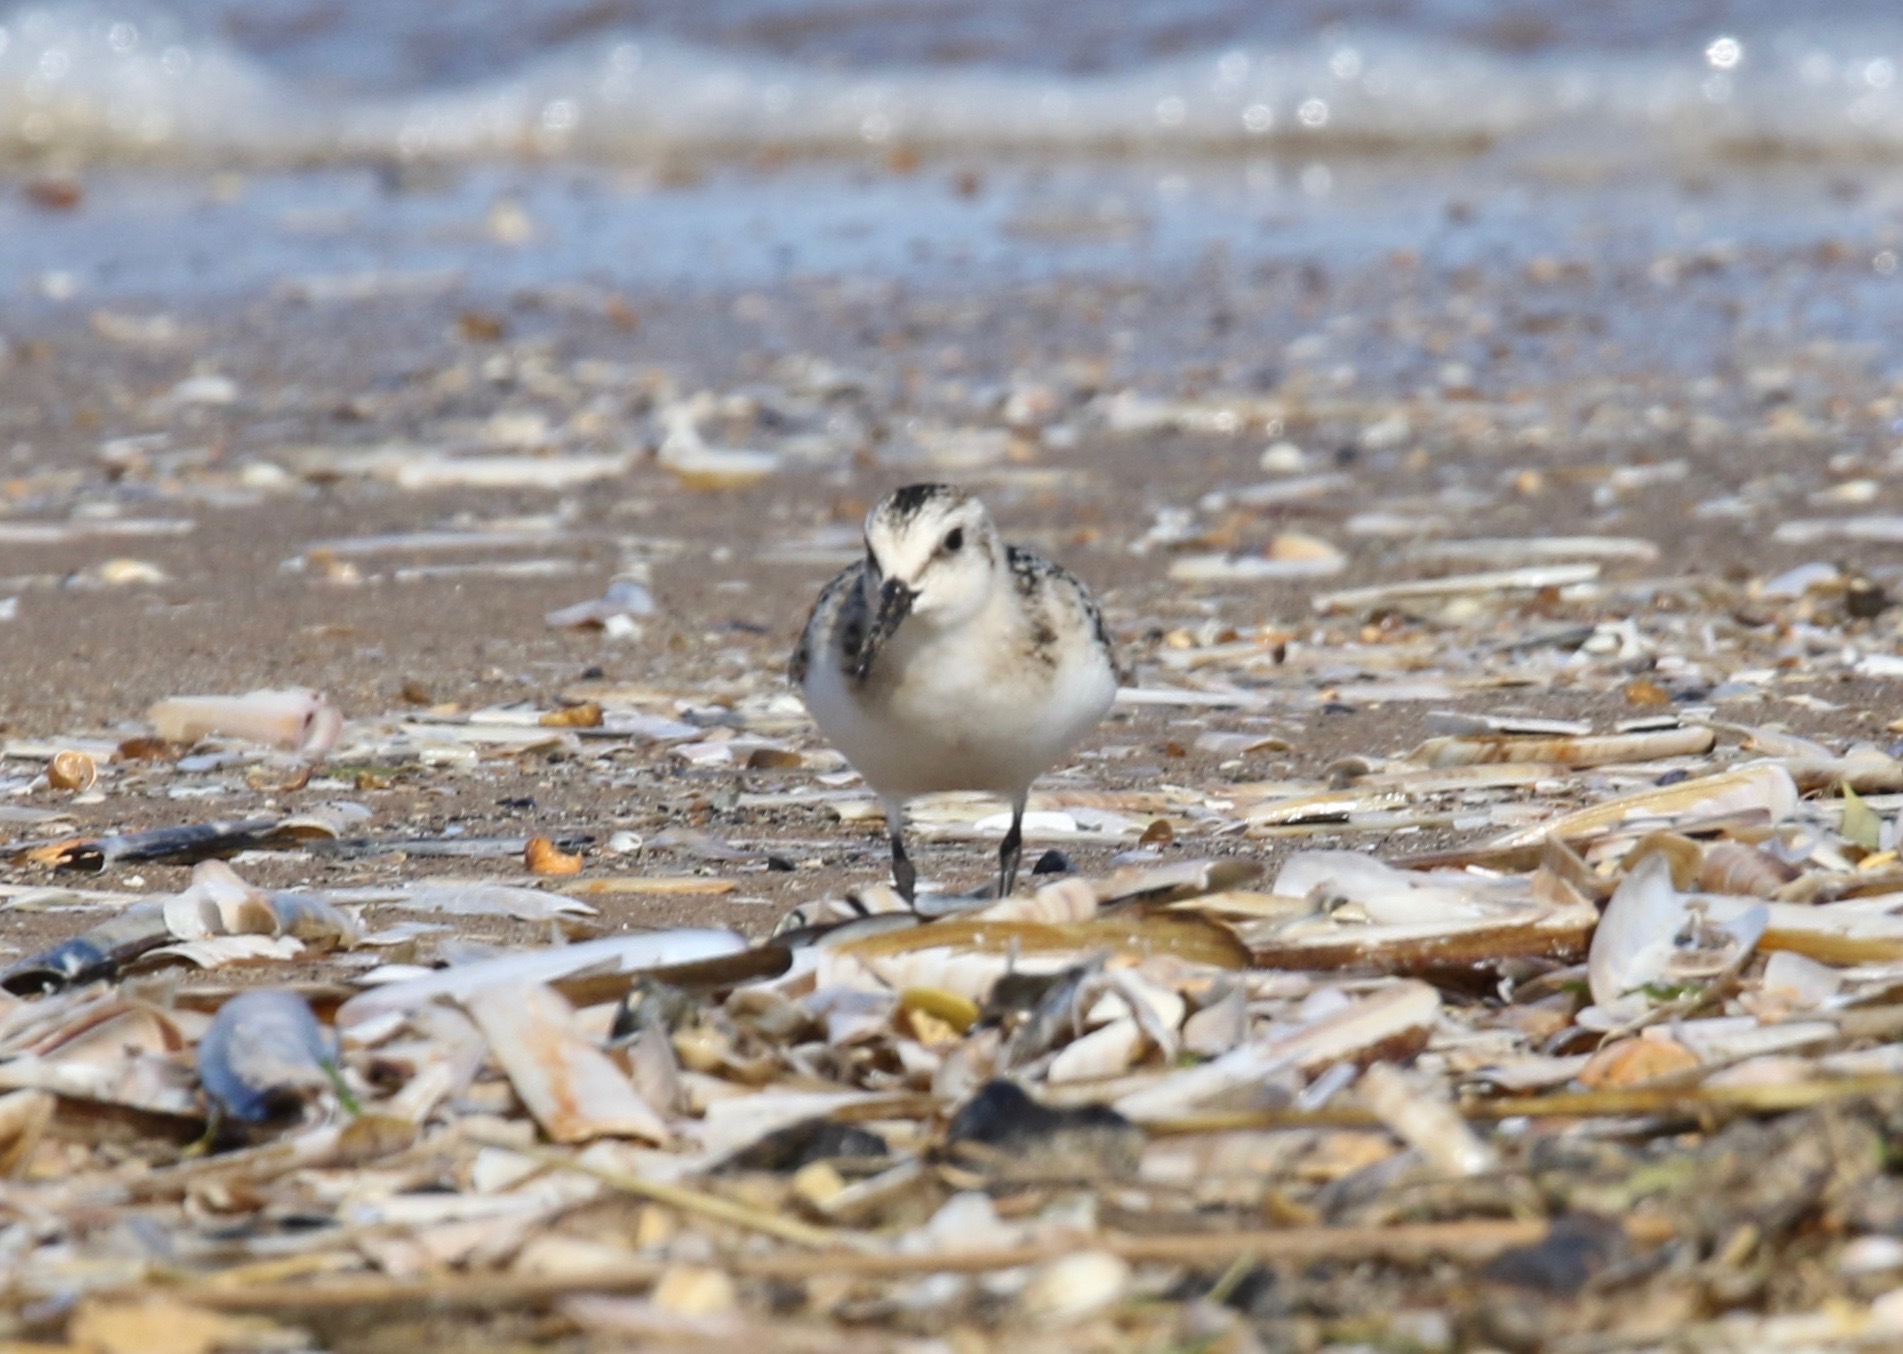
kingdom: Animalia
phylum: Chordata
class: Aves
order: Charadriiformes
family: Scolopacidae
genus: Calidris
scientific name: Calidris alba
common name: Sanderling
